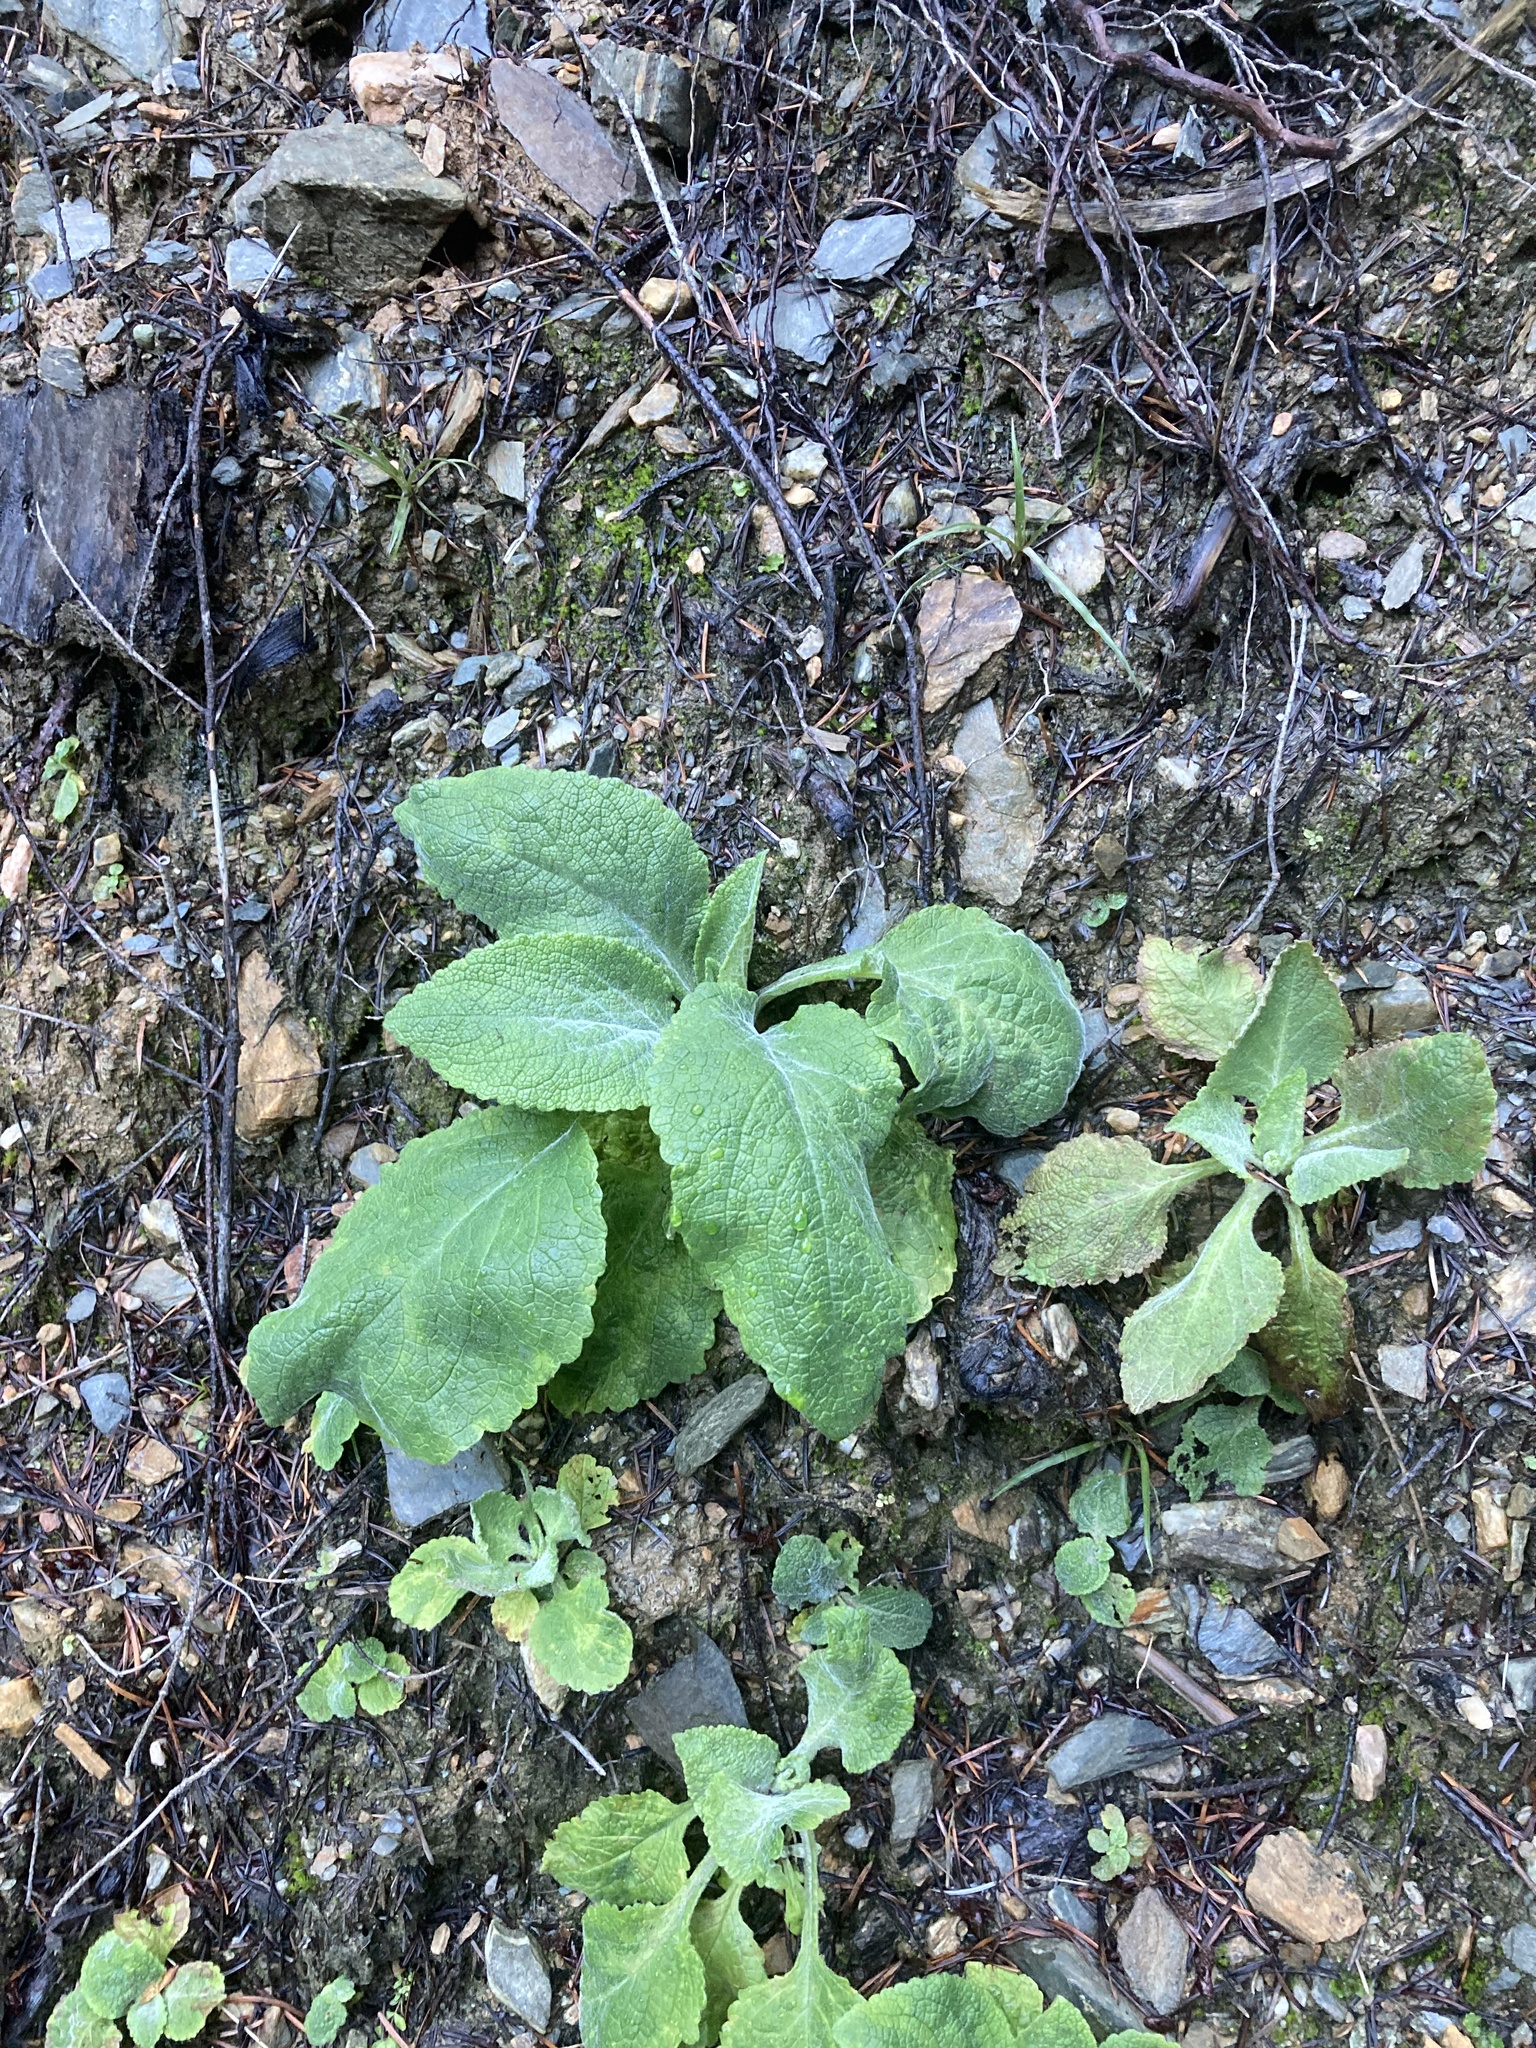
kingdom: Plantae
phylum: Tracheophyta
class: Magnoliopsida
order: Lamiales
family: Plantaginaceae
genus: Digitalis
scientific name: Digitalis purpurea
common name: Foxglove
